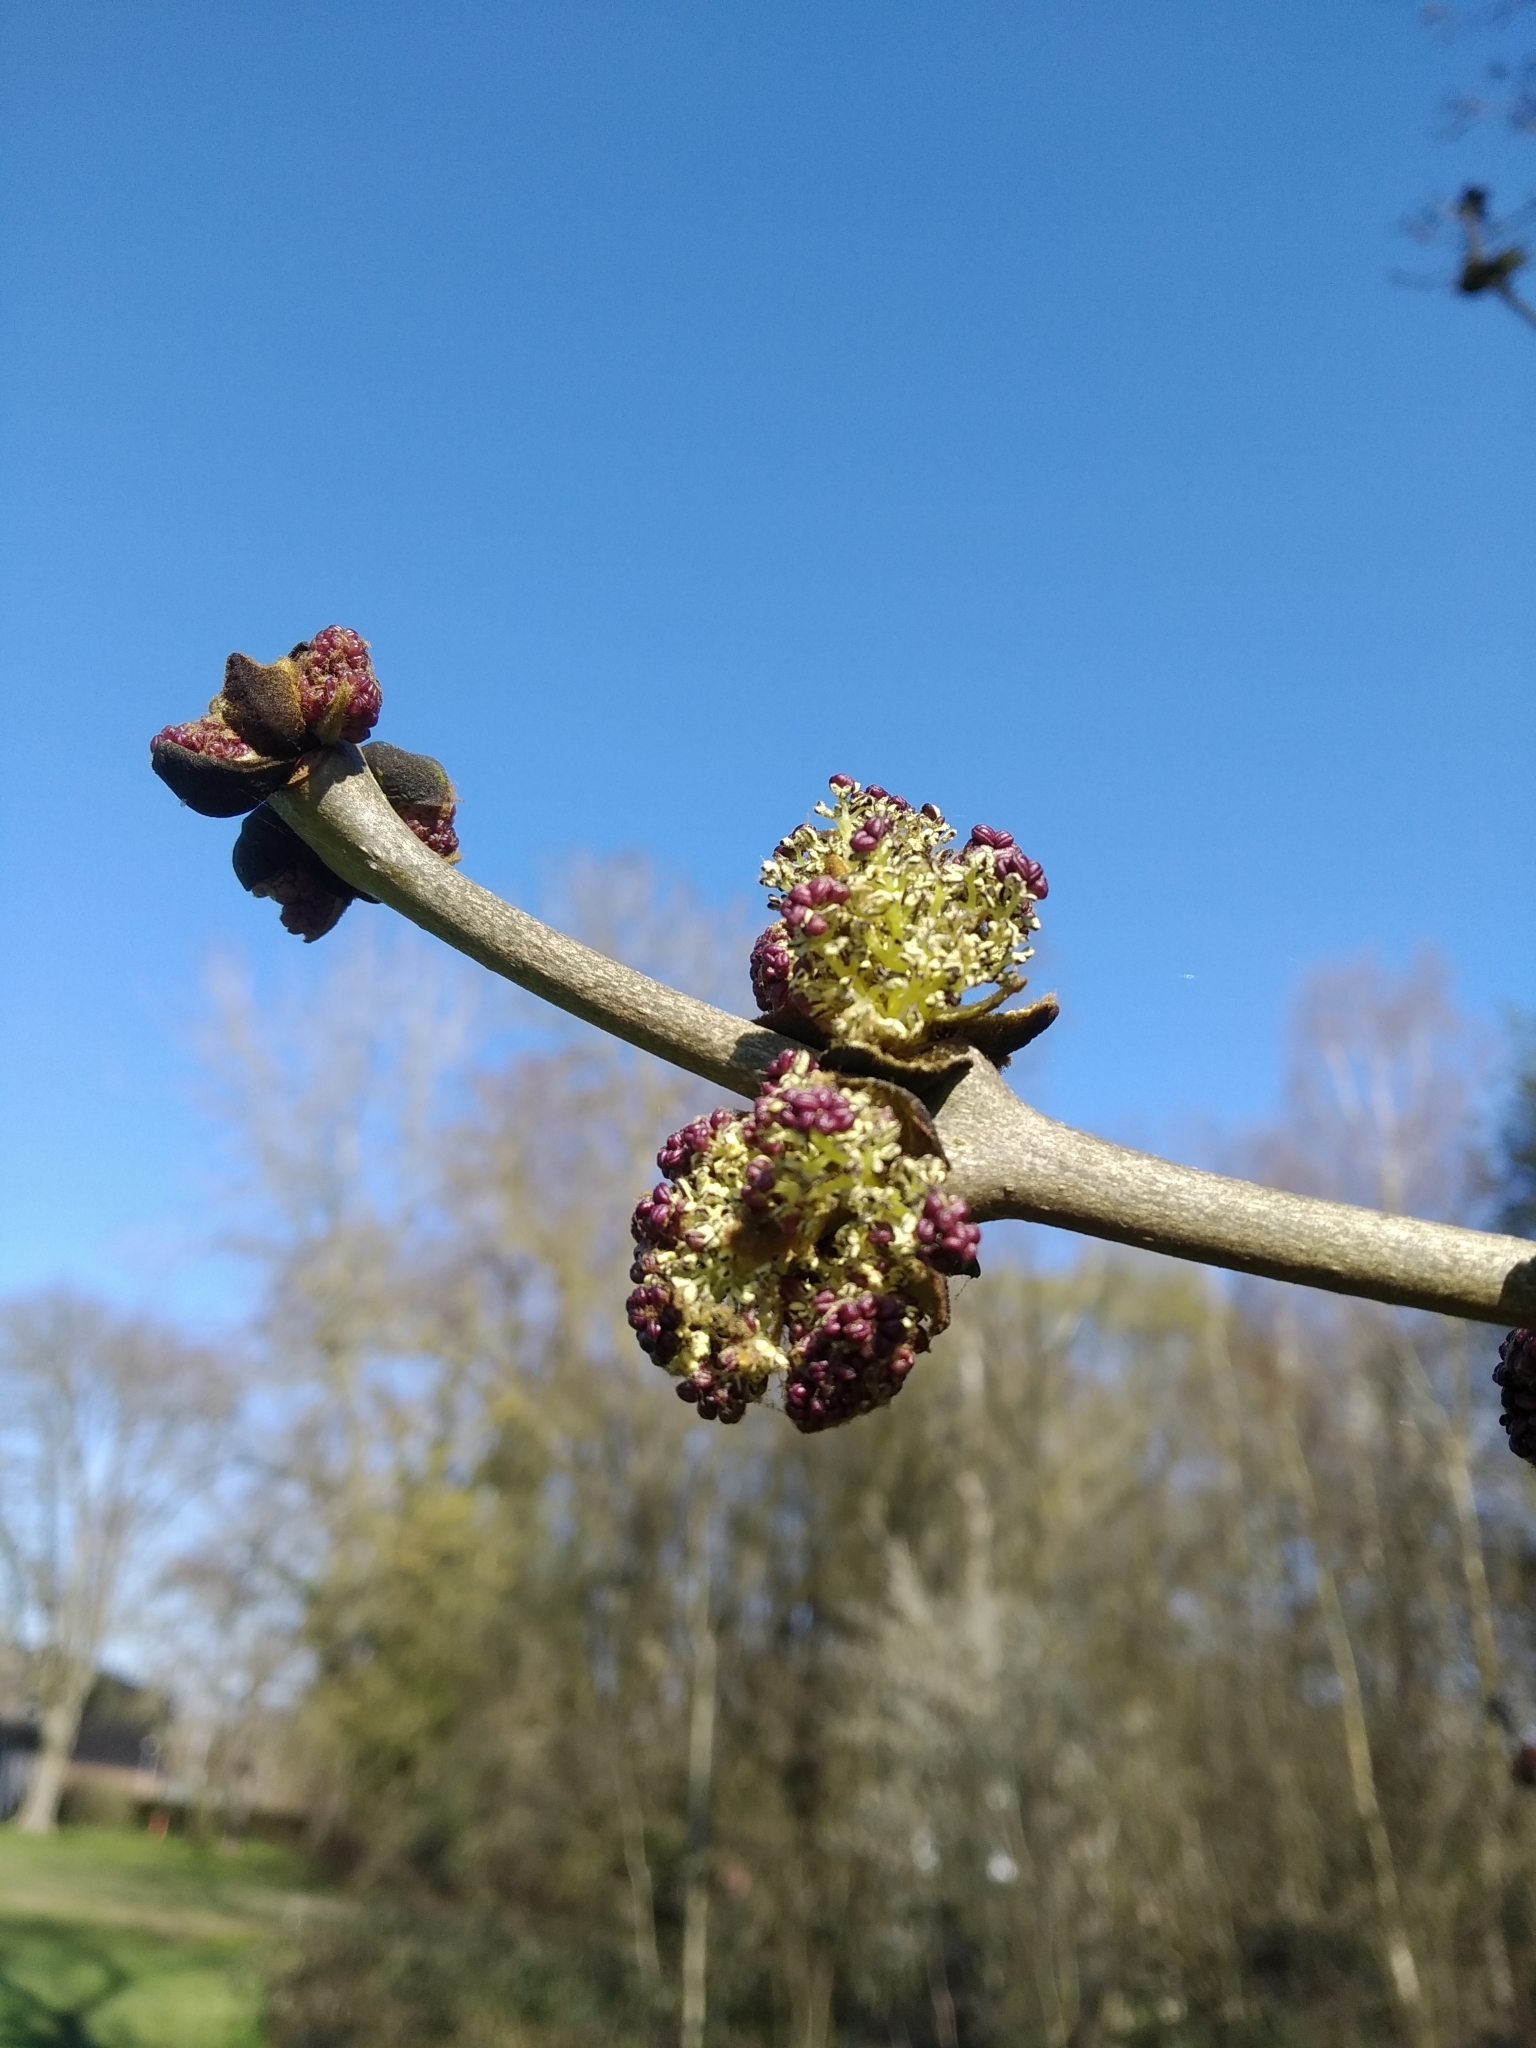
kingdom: Plantae
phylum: Tracheophyta
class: Magnoliopsida
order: Lamiales
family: Oleaceae
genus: Fraxinus
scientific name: Fraxinus excelsior
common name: European ash
